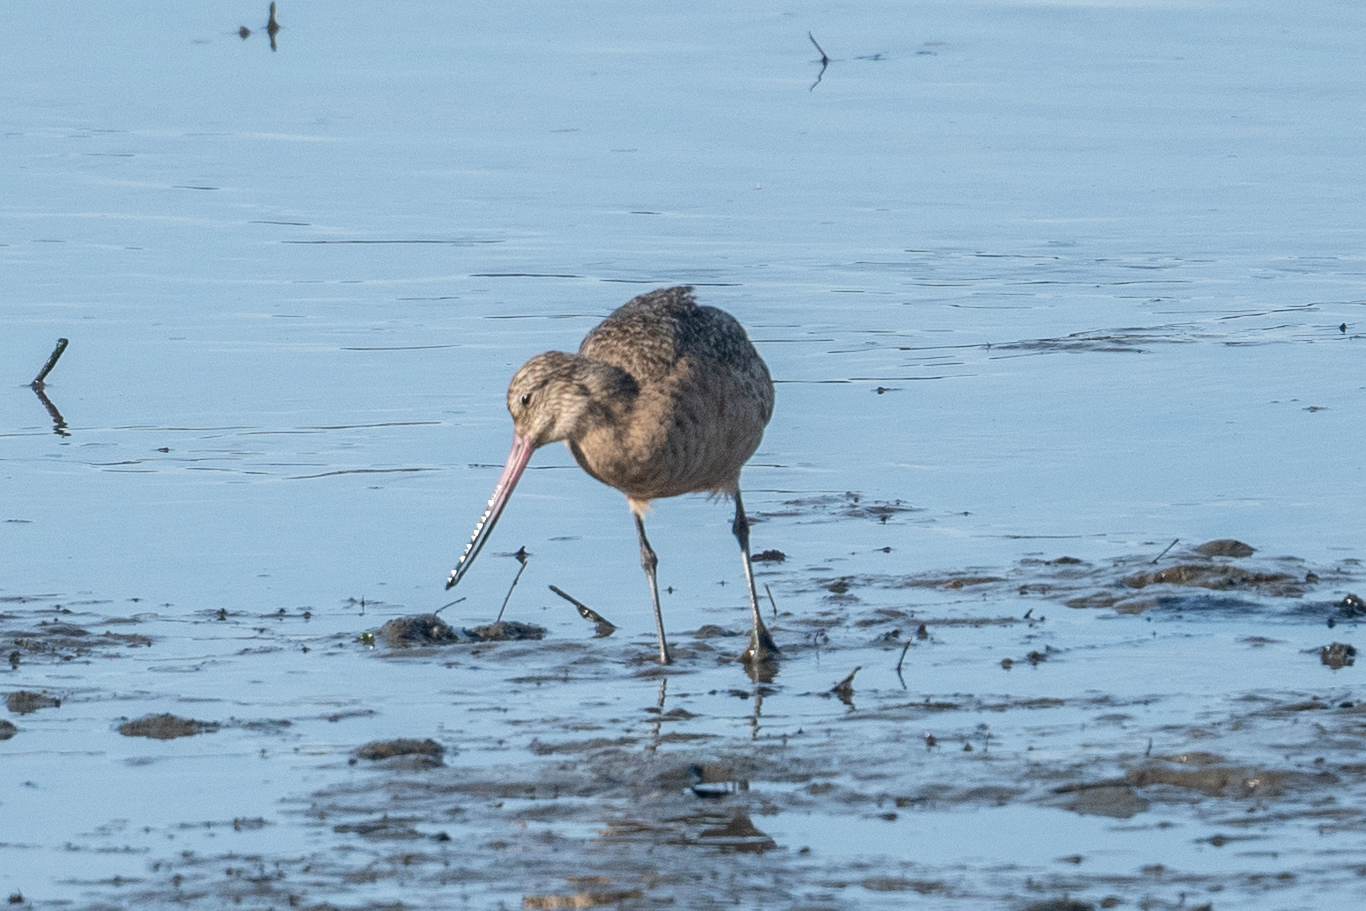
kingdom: Animalia
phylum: Chordata
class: Aves
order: Charadriiformes
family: Scolopacidae
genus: Limosa
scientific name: Limosa fedoa
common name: Marbled godwit
